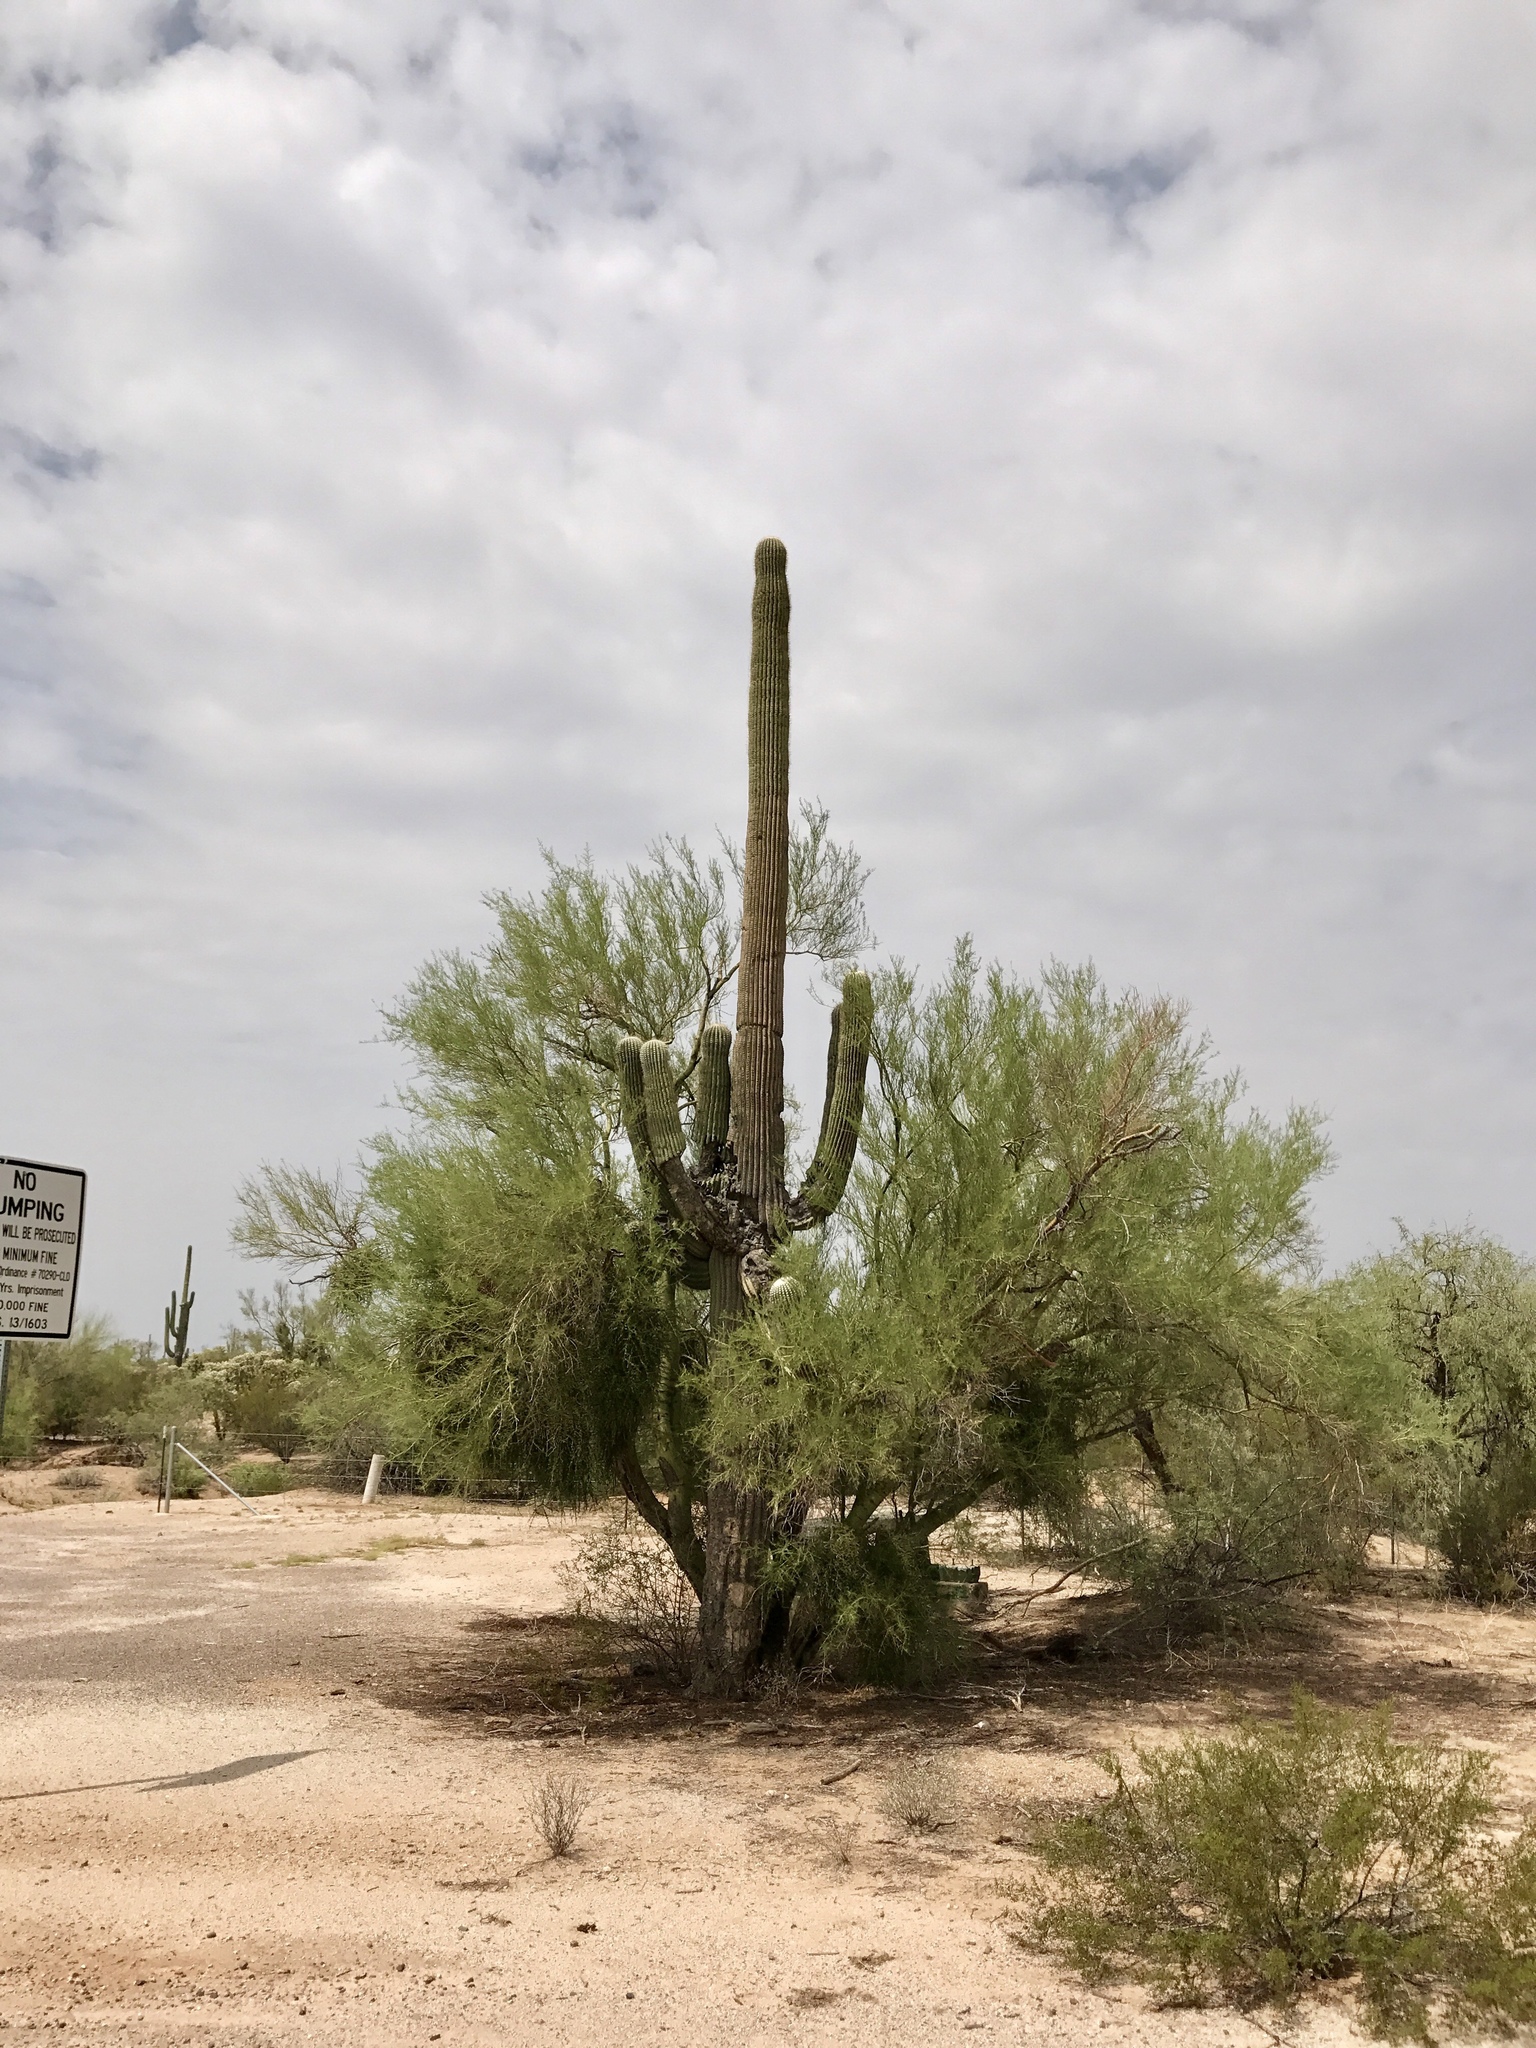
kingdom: Plantae
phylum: Tracheophyta
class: Magnoliopsida
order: Caryophyllales
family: Cactaceae
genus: Carnegiea
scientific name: Carnegiea gigantea
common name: Saguaro
